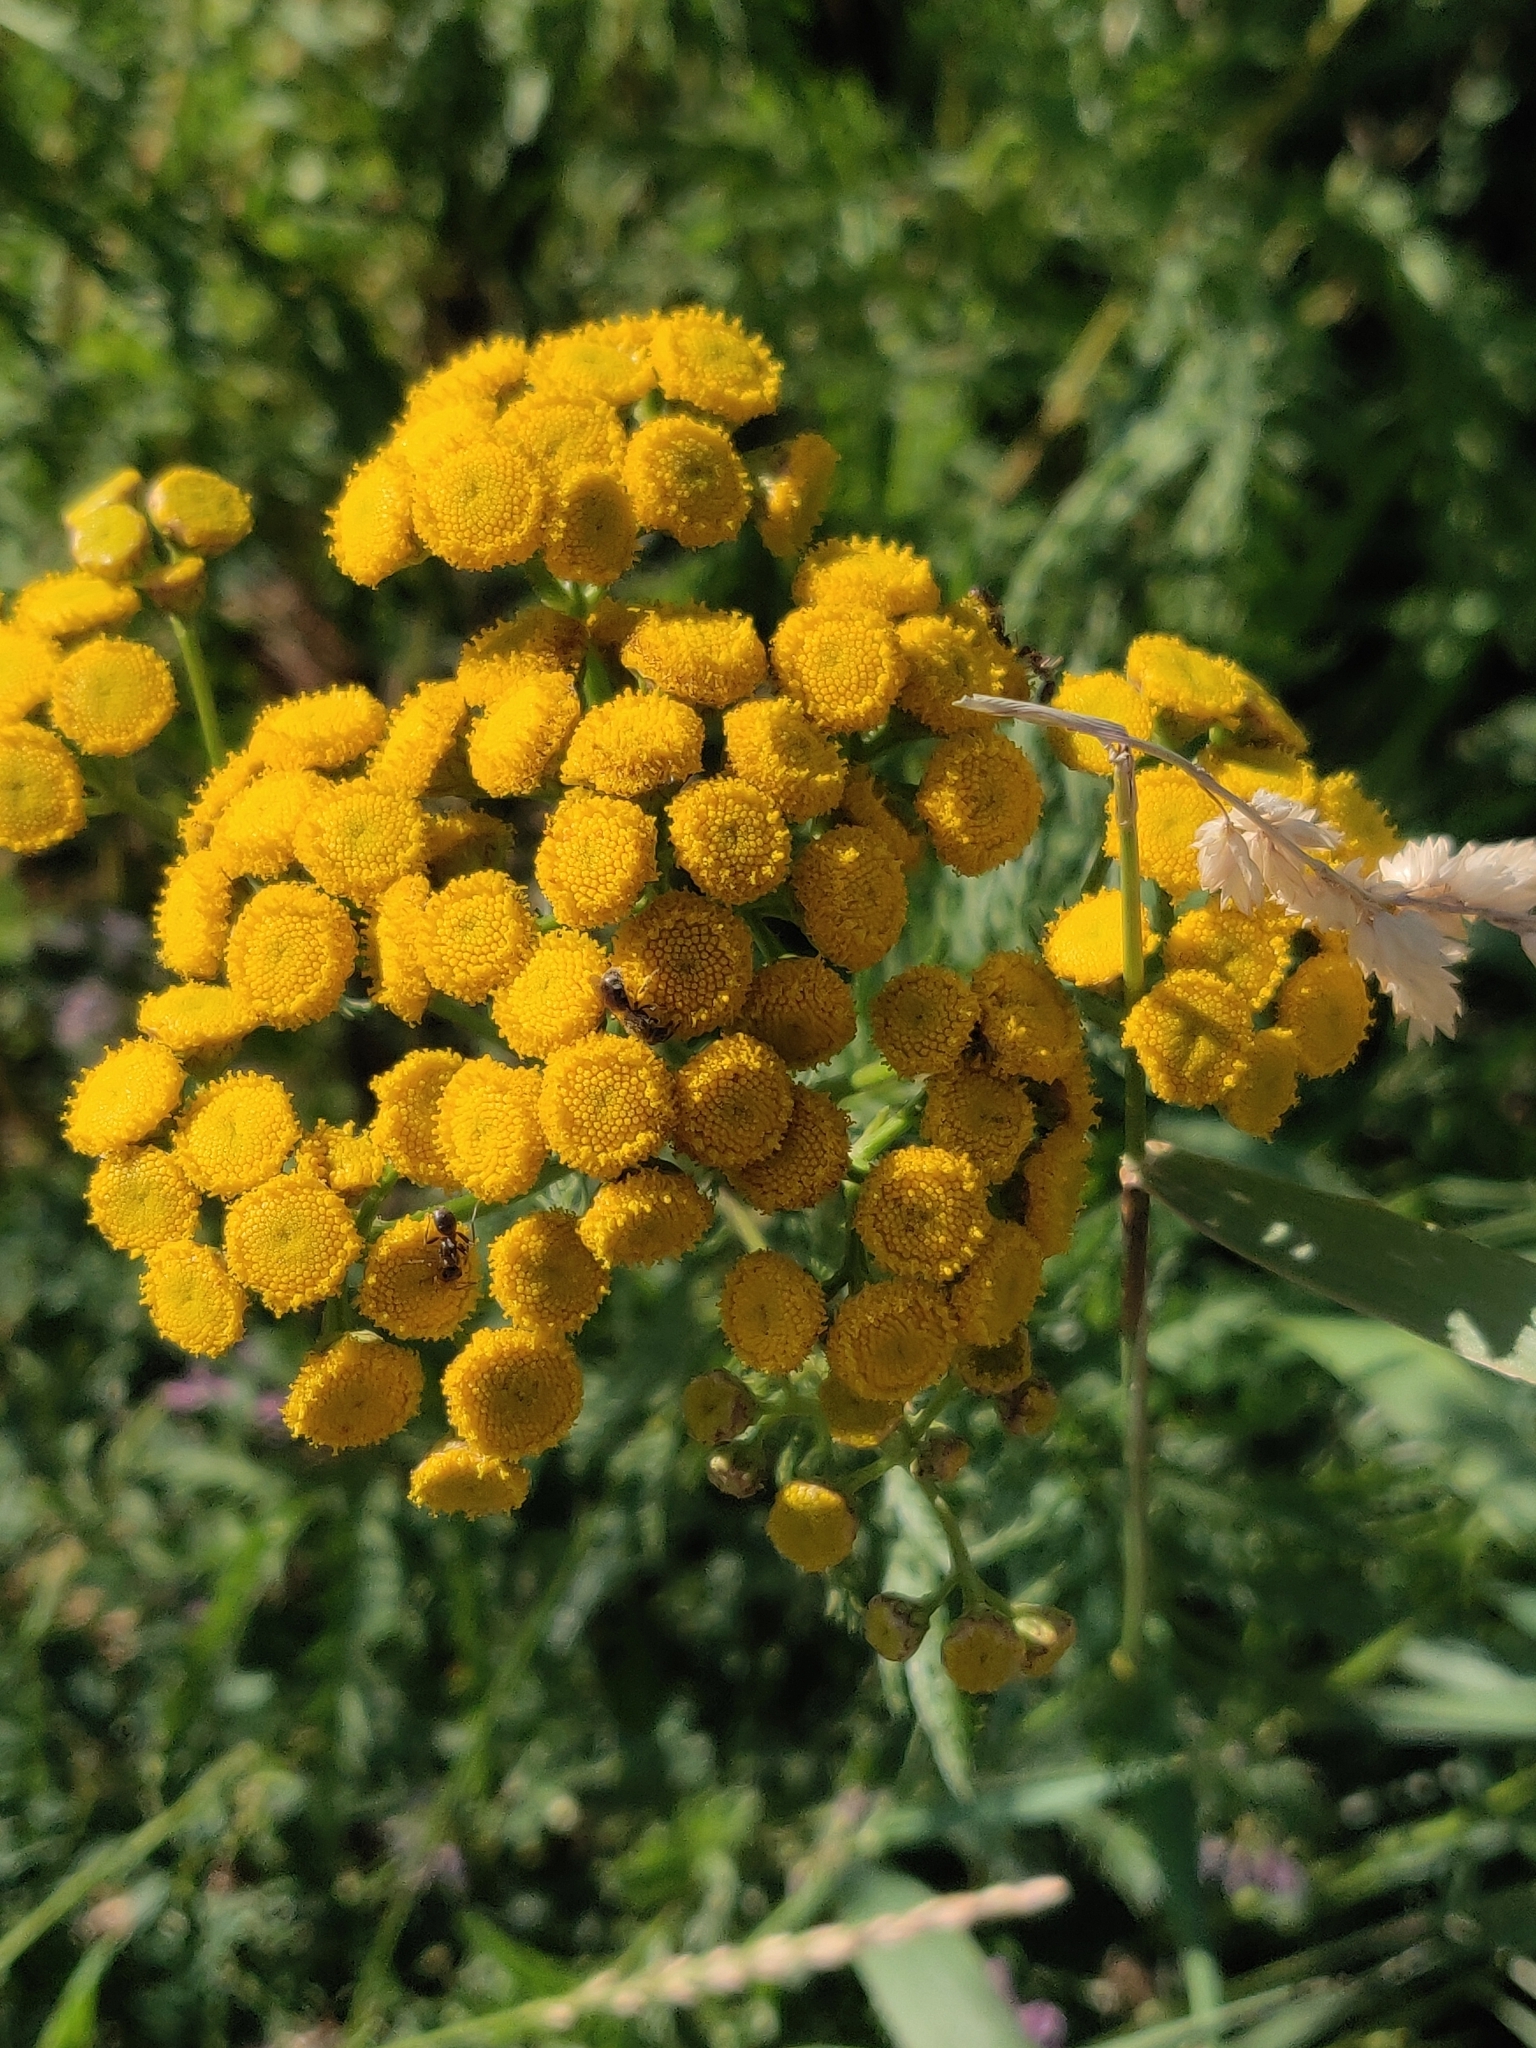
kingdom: Plantae
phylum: Tracheophyta
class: Magnoliopsida
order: Asterales
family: Asteraceae
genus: Tanacetum
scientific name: Tanacetum vulgare
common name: Common tansy
